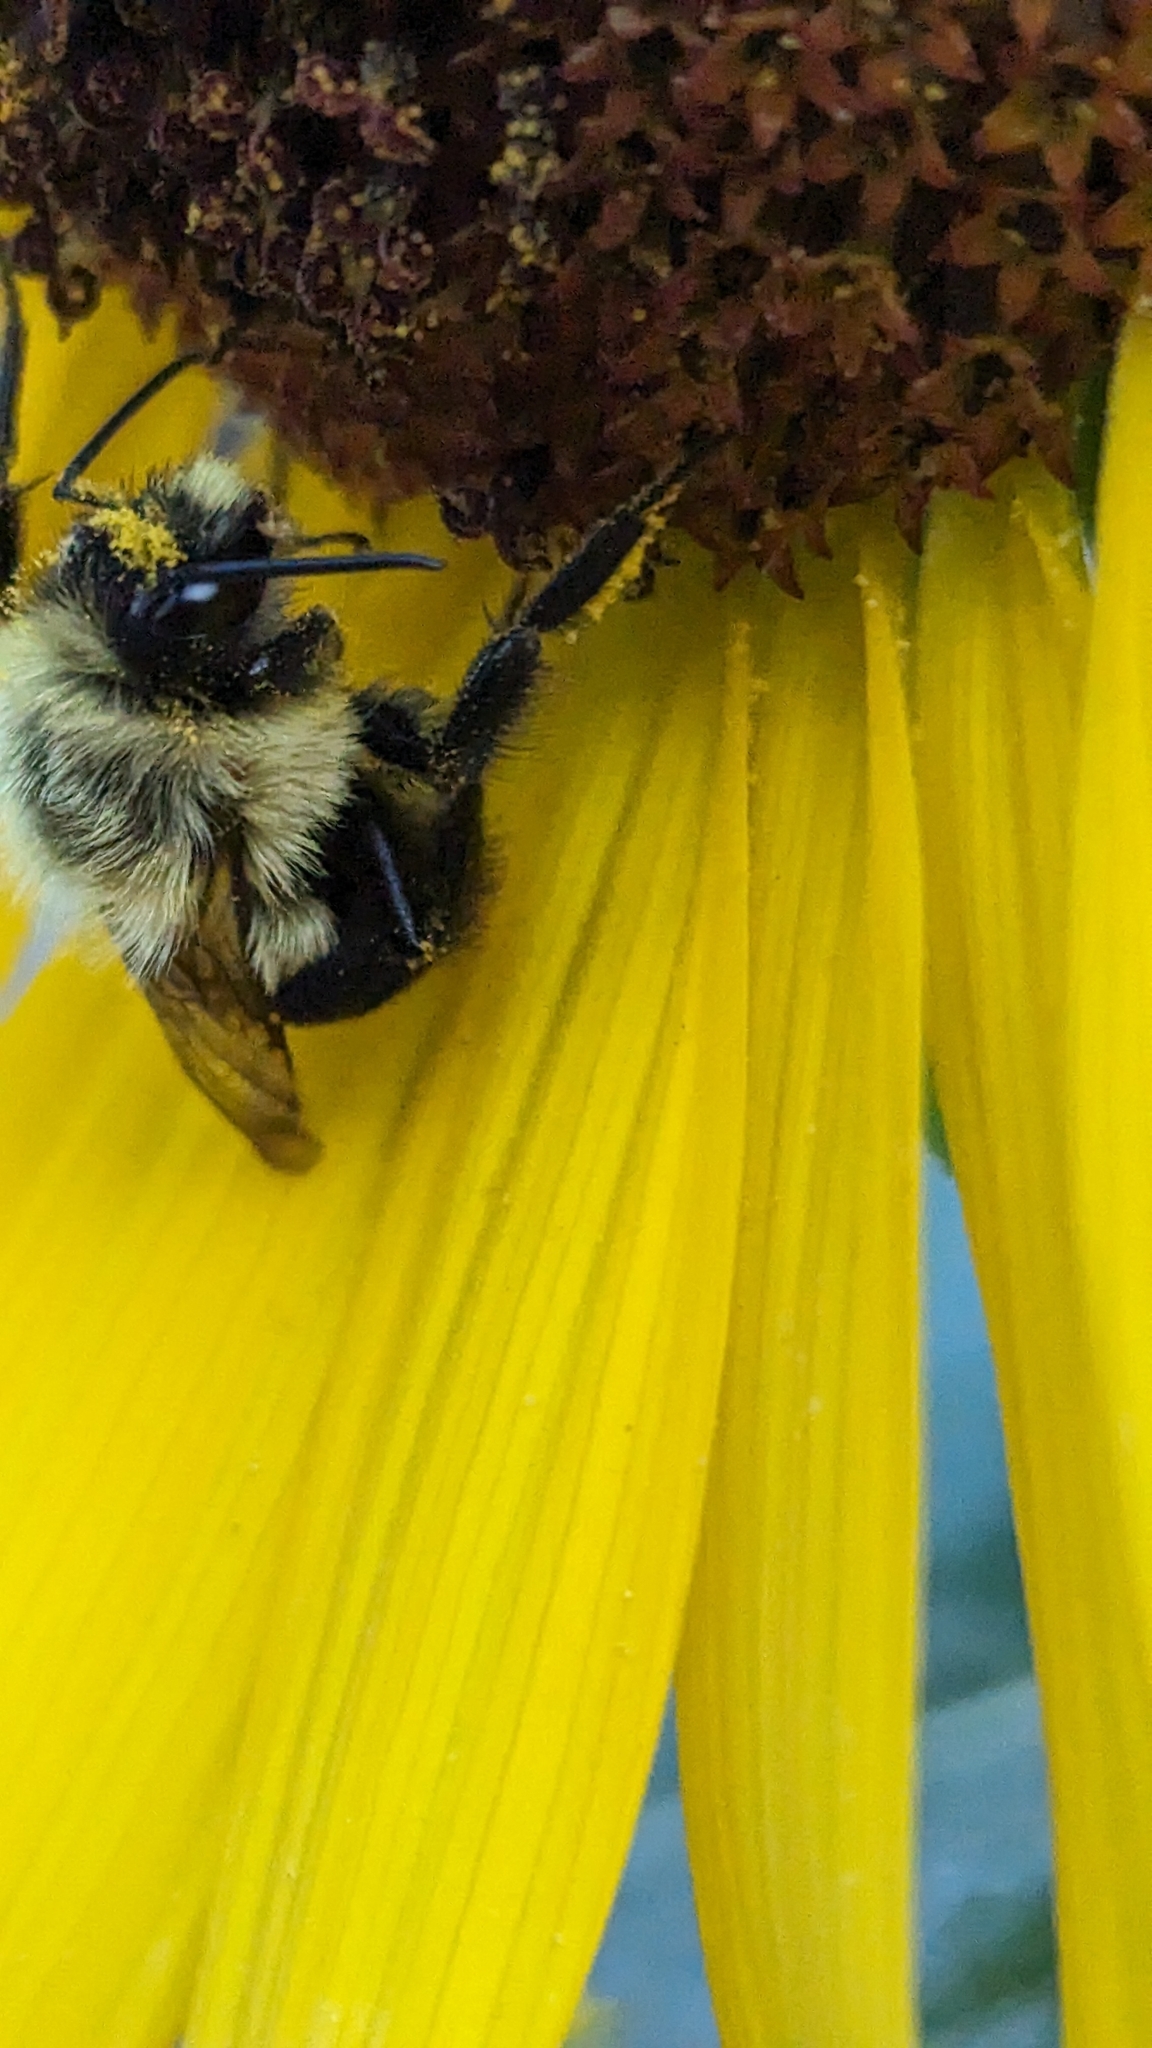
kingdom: Animalia
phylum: Arthropoda
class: Insecta
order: Hymenoptera
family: Apidae
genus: Bombus
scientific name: Bombus impatiens
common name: Common eastern bumble bee
